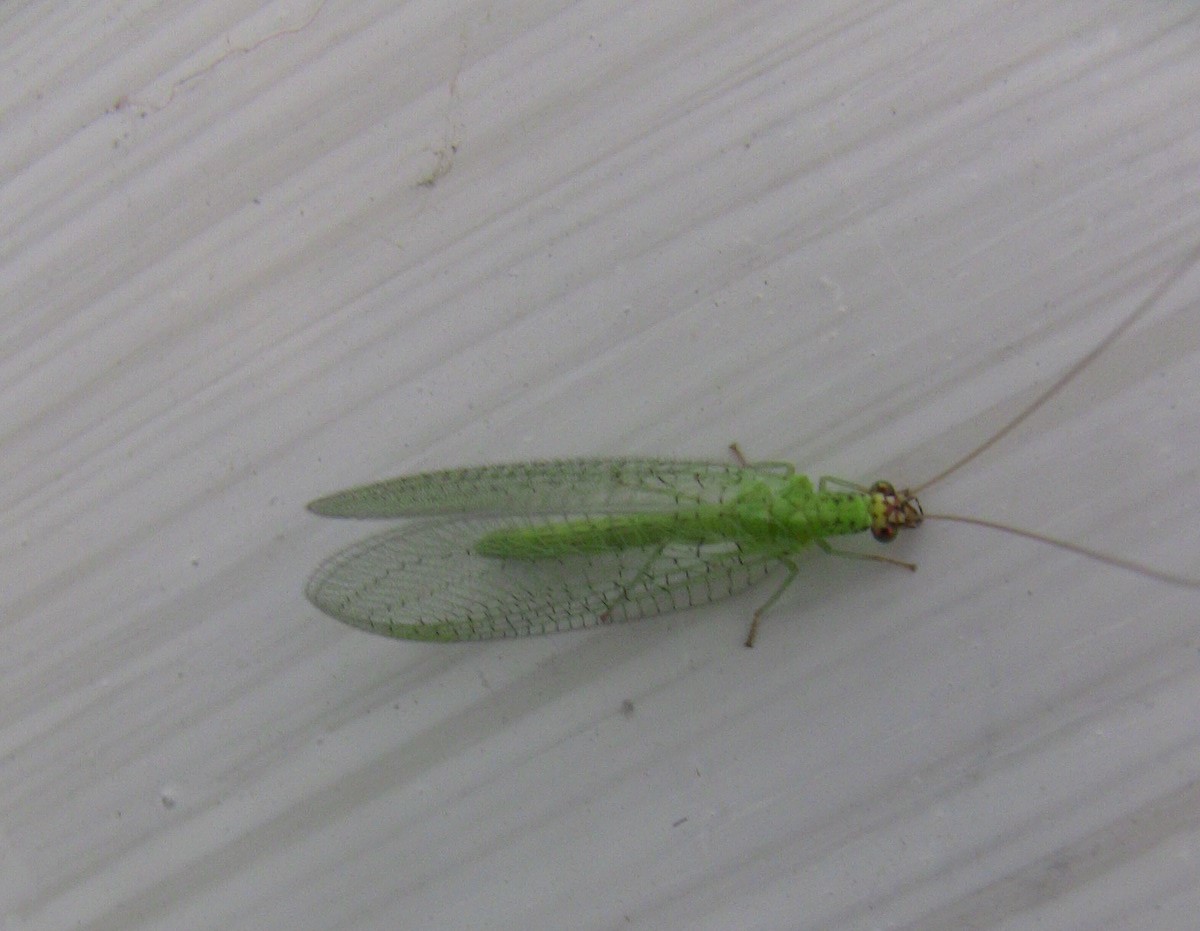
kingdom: Animalia
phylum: Arthropoda
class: Insecta
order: Neuroptera
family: Chrysopidae
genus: Chrysopa
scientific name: Chrysopa oculata
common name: Golden-eyed lacewing
